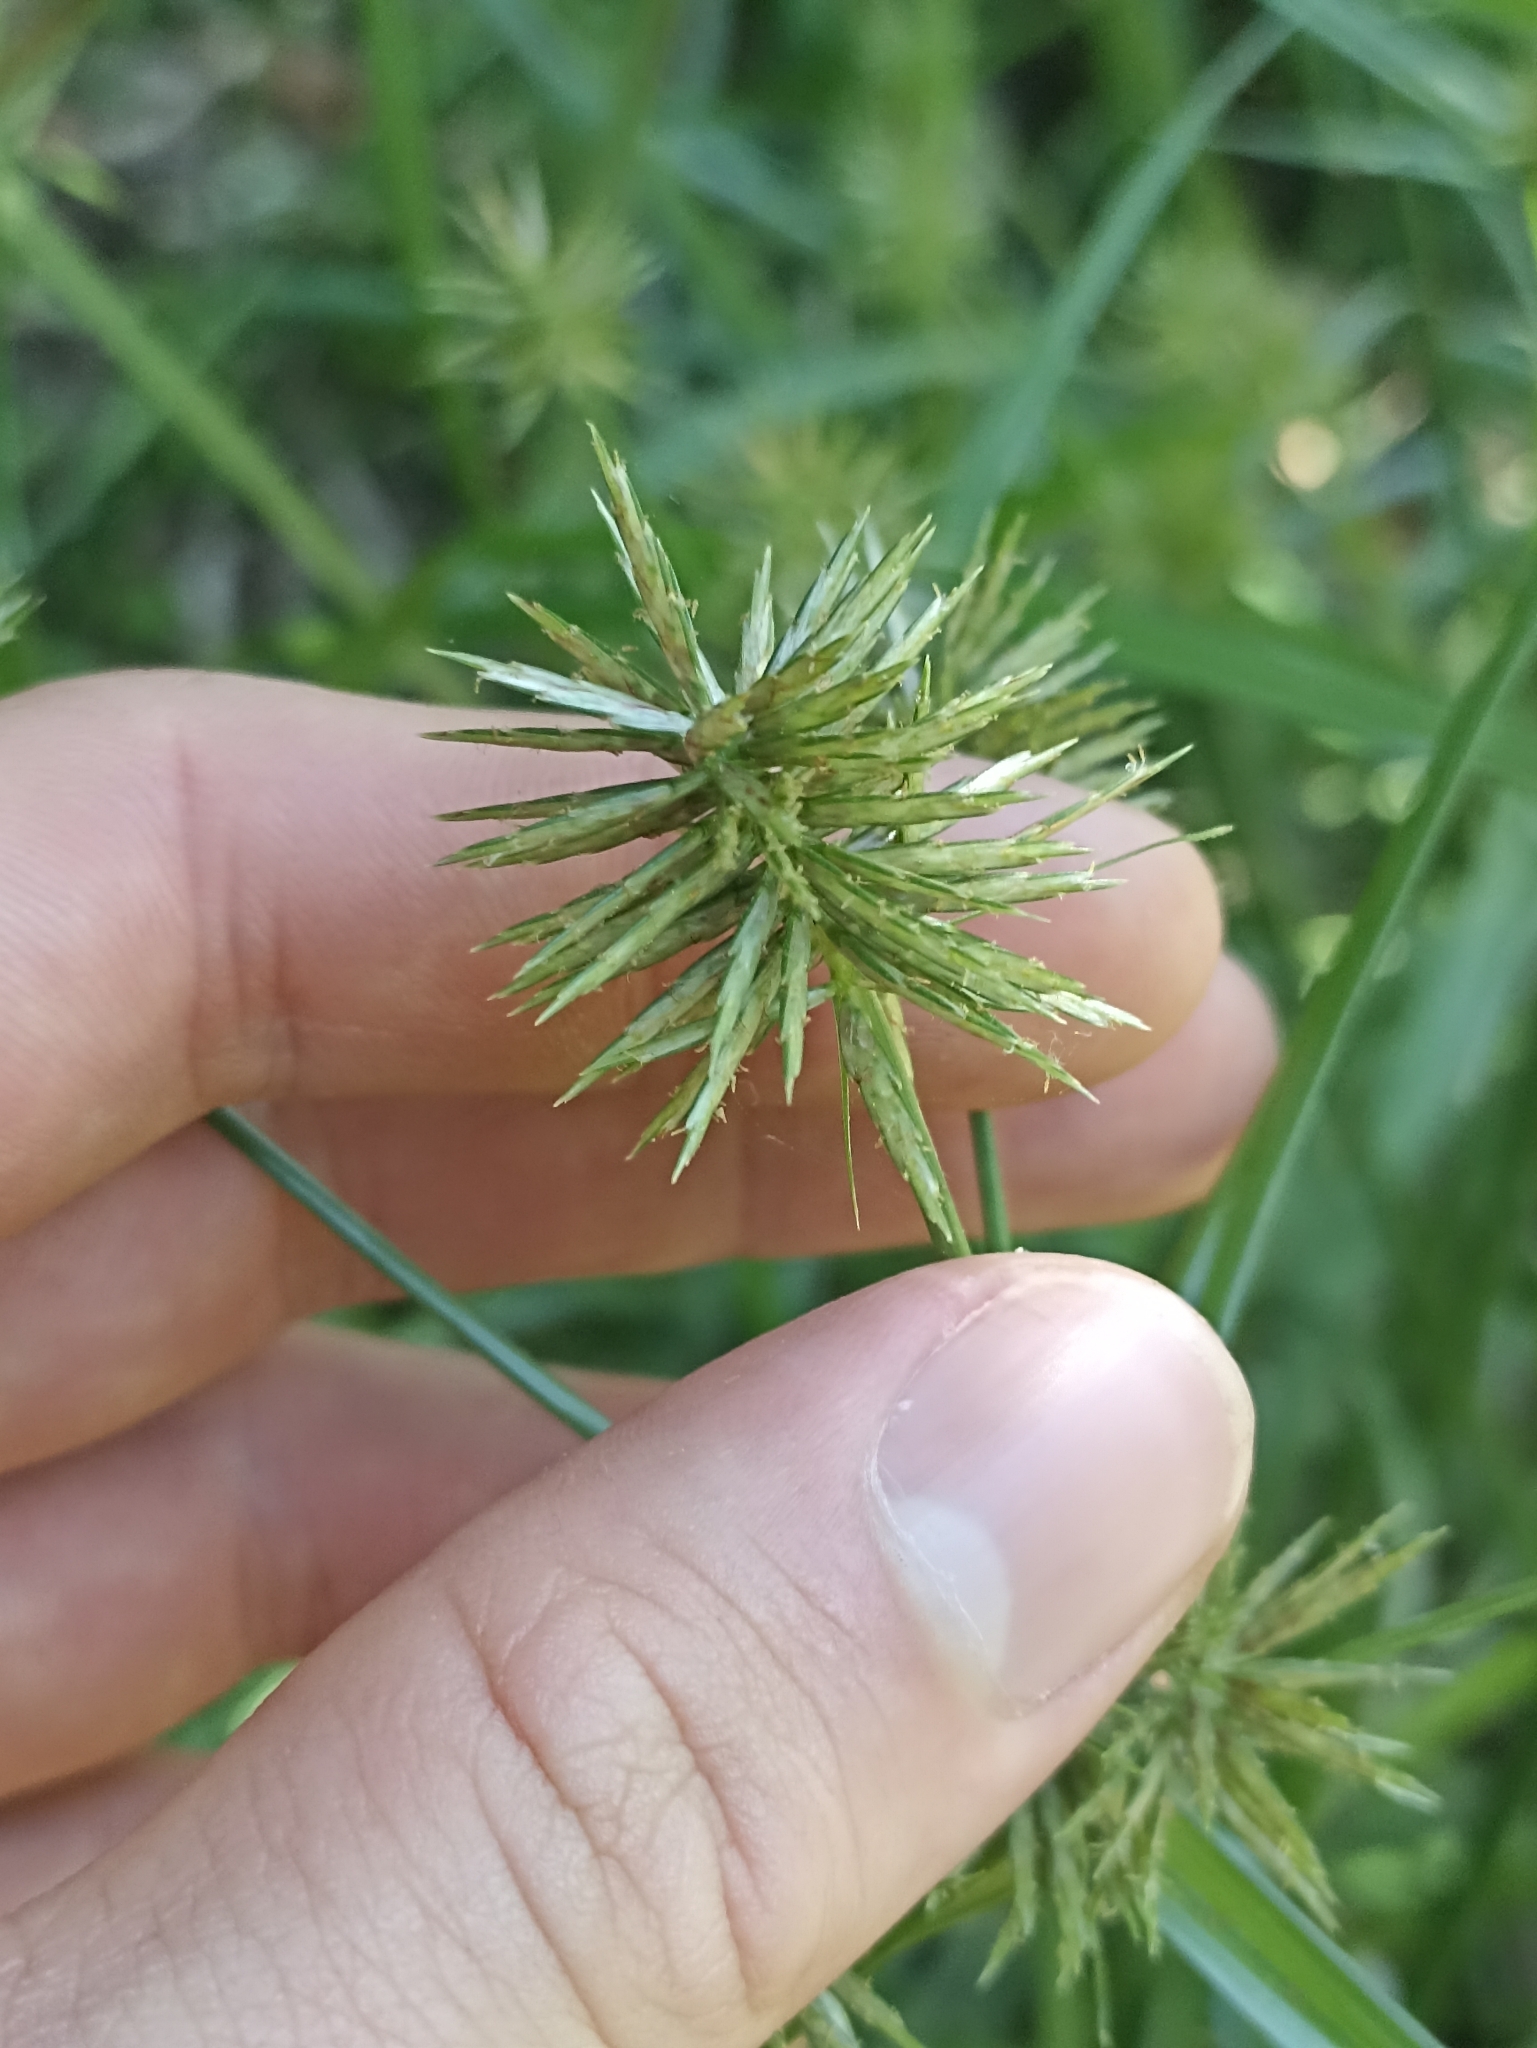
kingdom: Plantae
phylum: Tracheophyta
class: Liliopsida
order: Poales
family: Cyperaceae
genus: Cyperus
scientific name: Cyperus congestus
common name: Dense flat sedge
